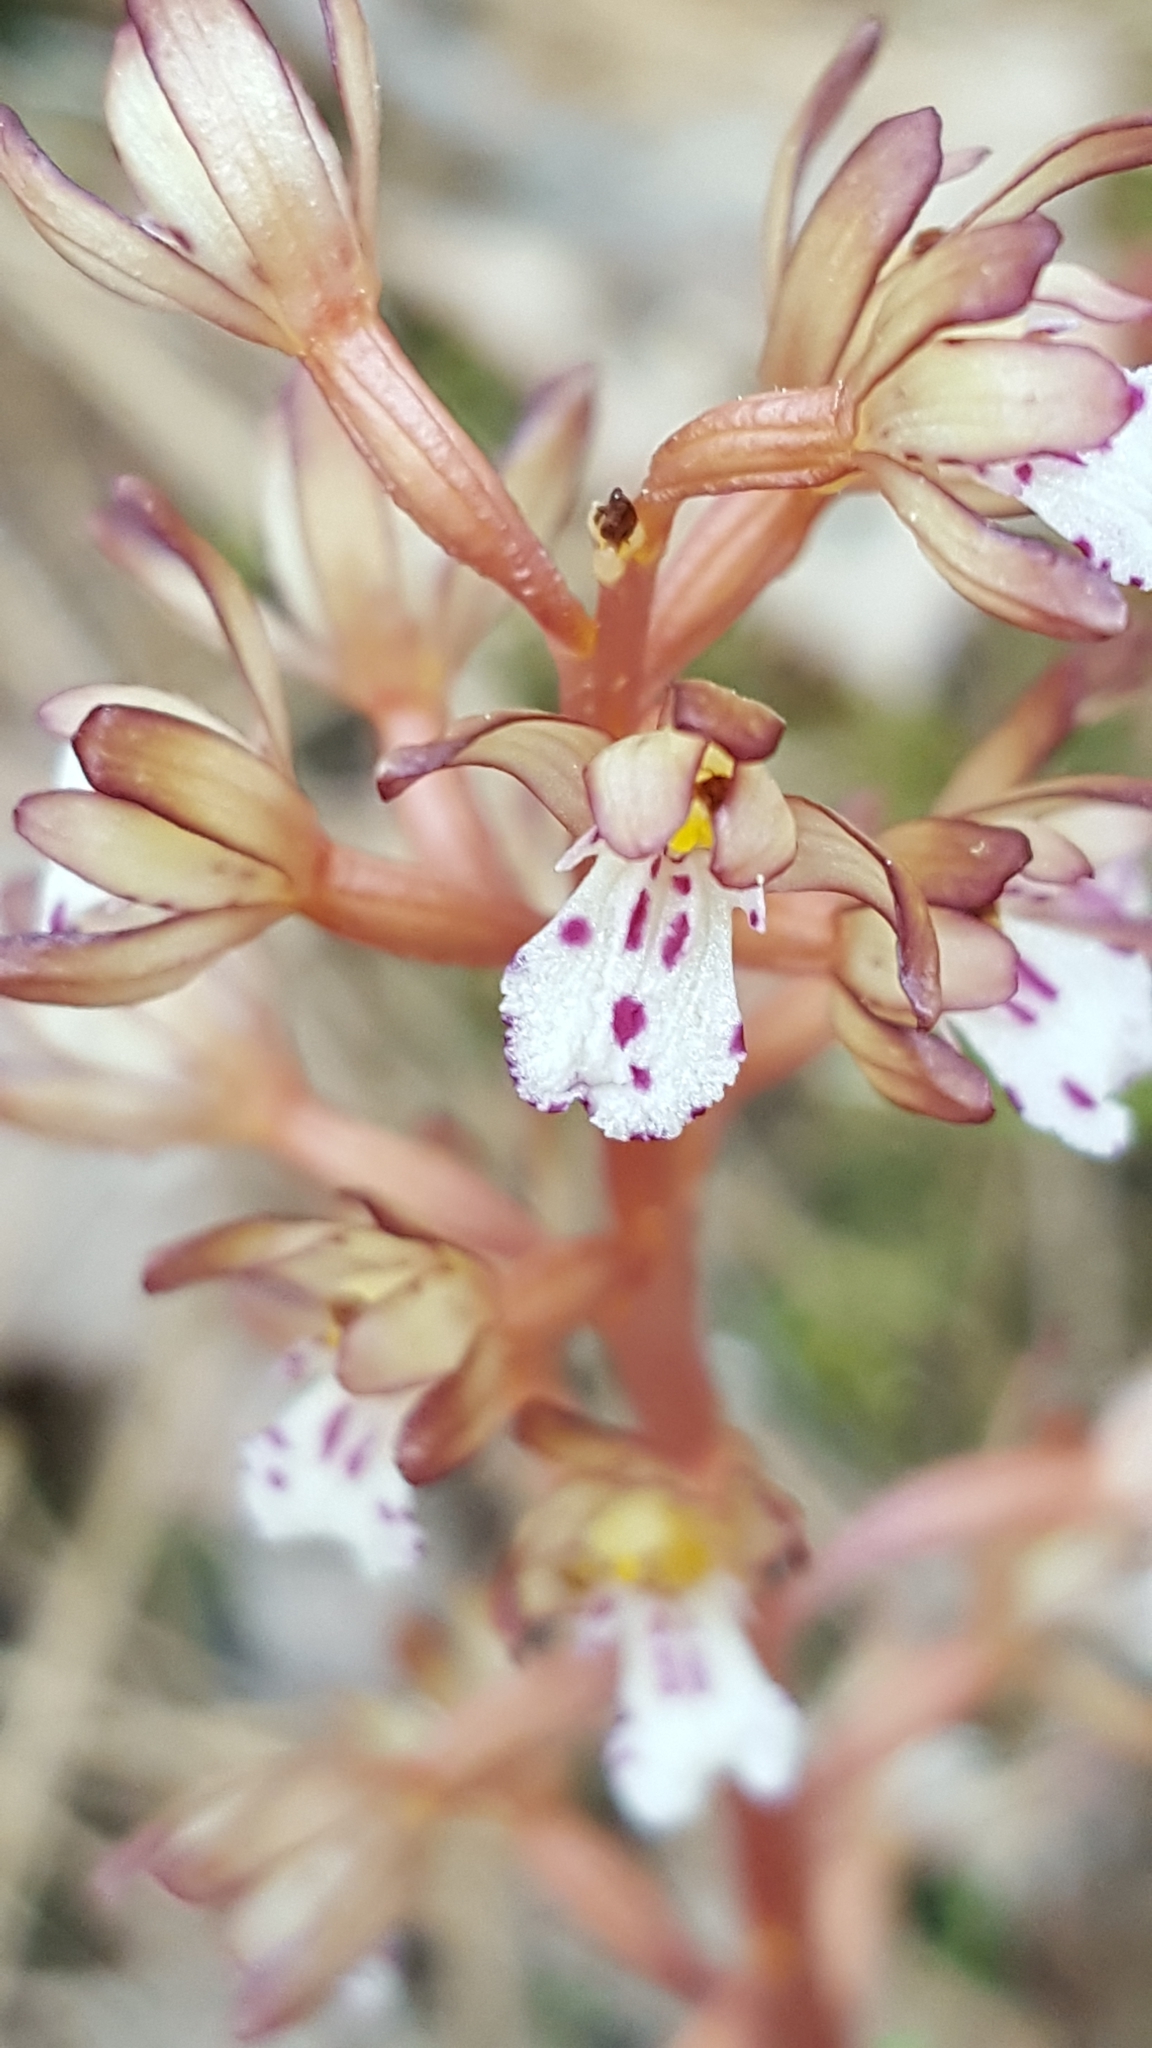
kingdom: Plantae
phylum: Tracheophyta
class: Liliopsida
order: Asparagales
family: Orchidaceae
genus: Corallorhiza
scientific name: Corallorhiza maculata
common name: Spotted coralroot
